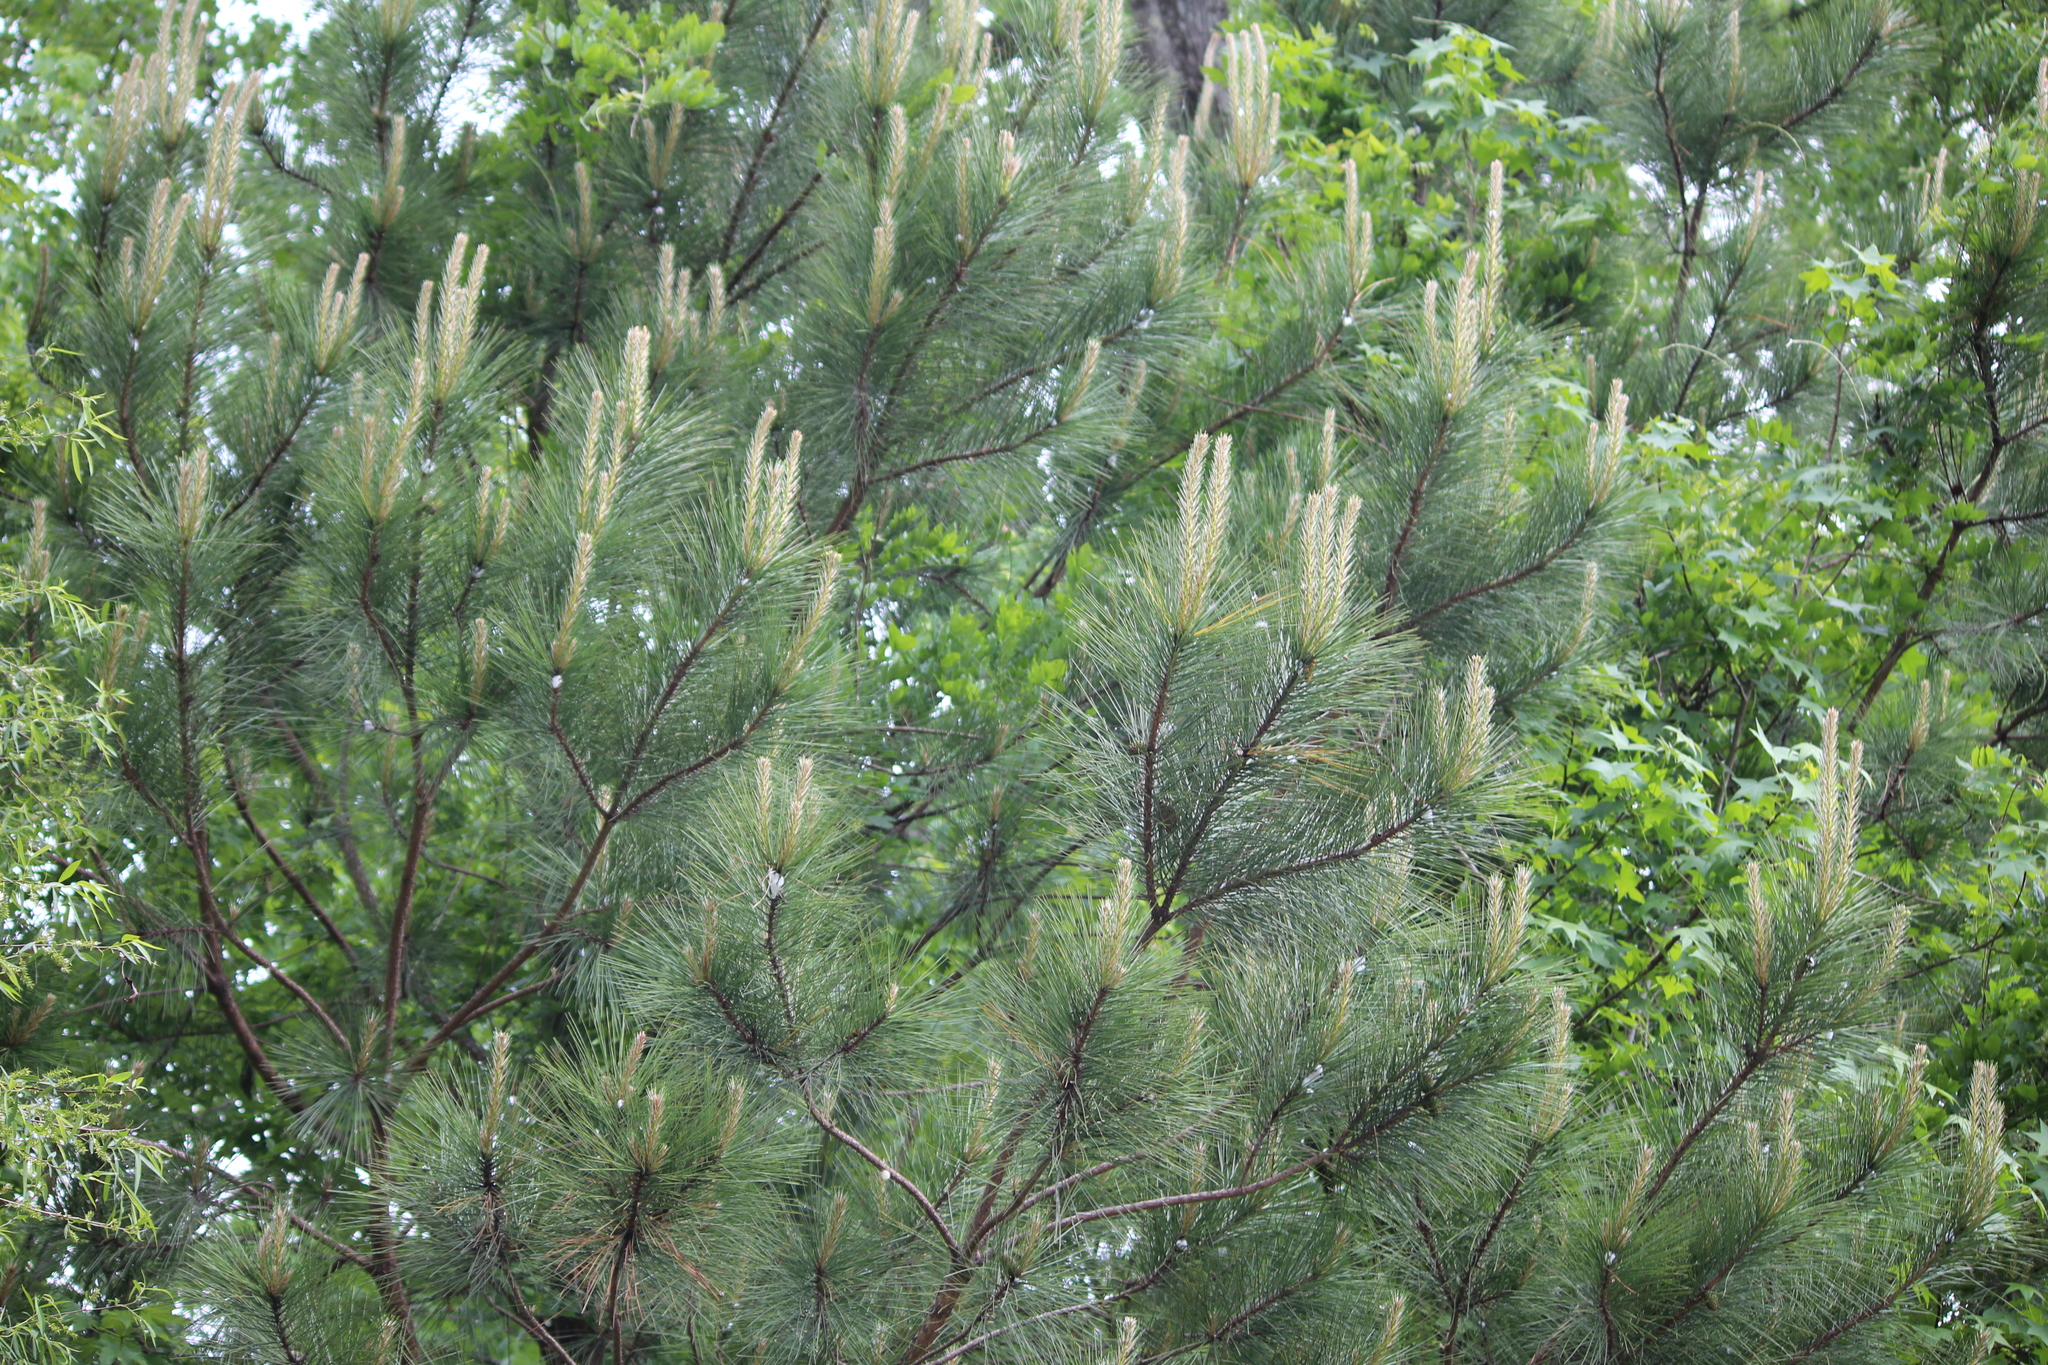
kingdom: Plantae
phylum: Tracheophyta
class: Pinopsida
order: Pinales
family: Pinaceae
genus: Pinus
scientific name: Pinus taeda
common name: Loblolly pine
